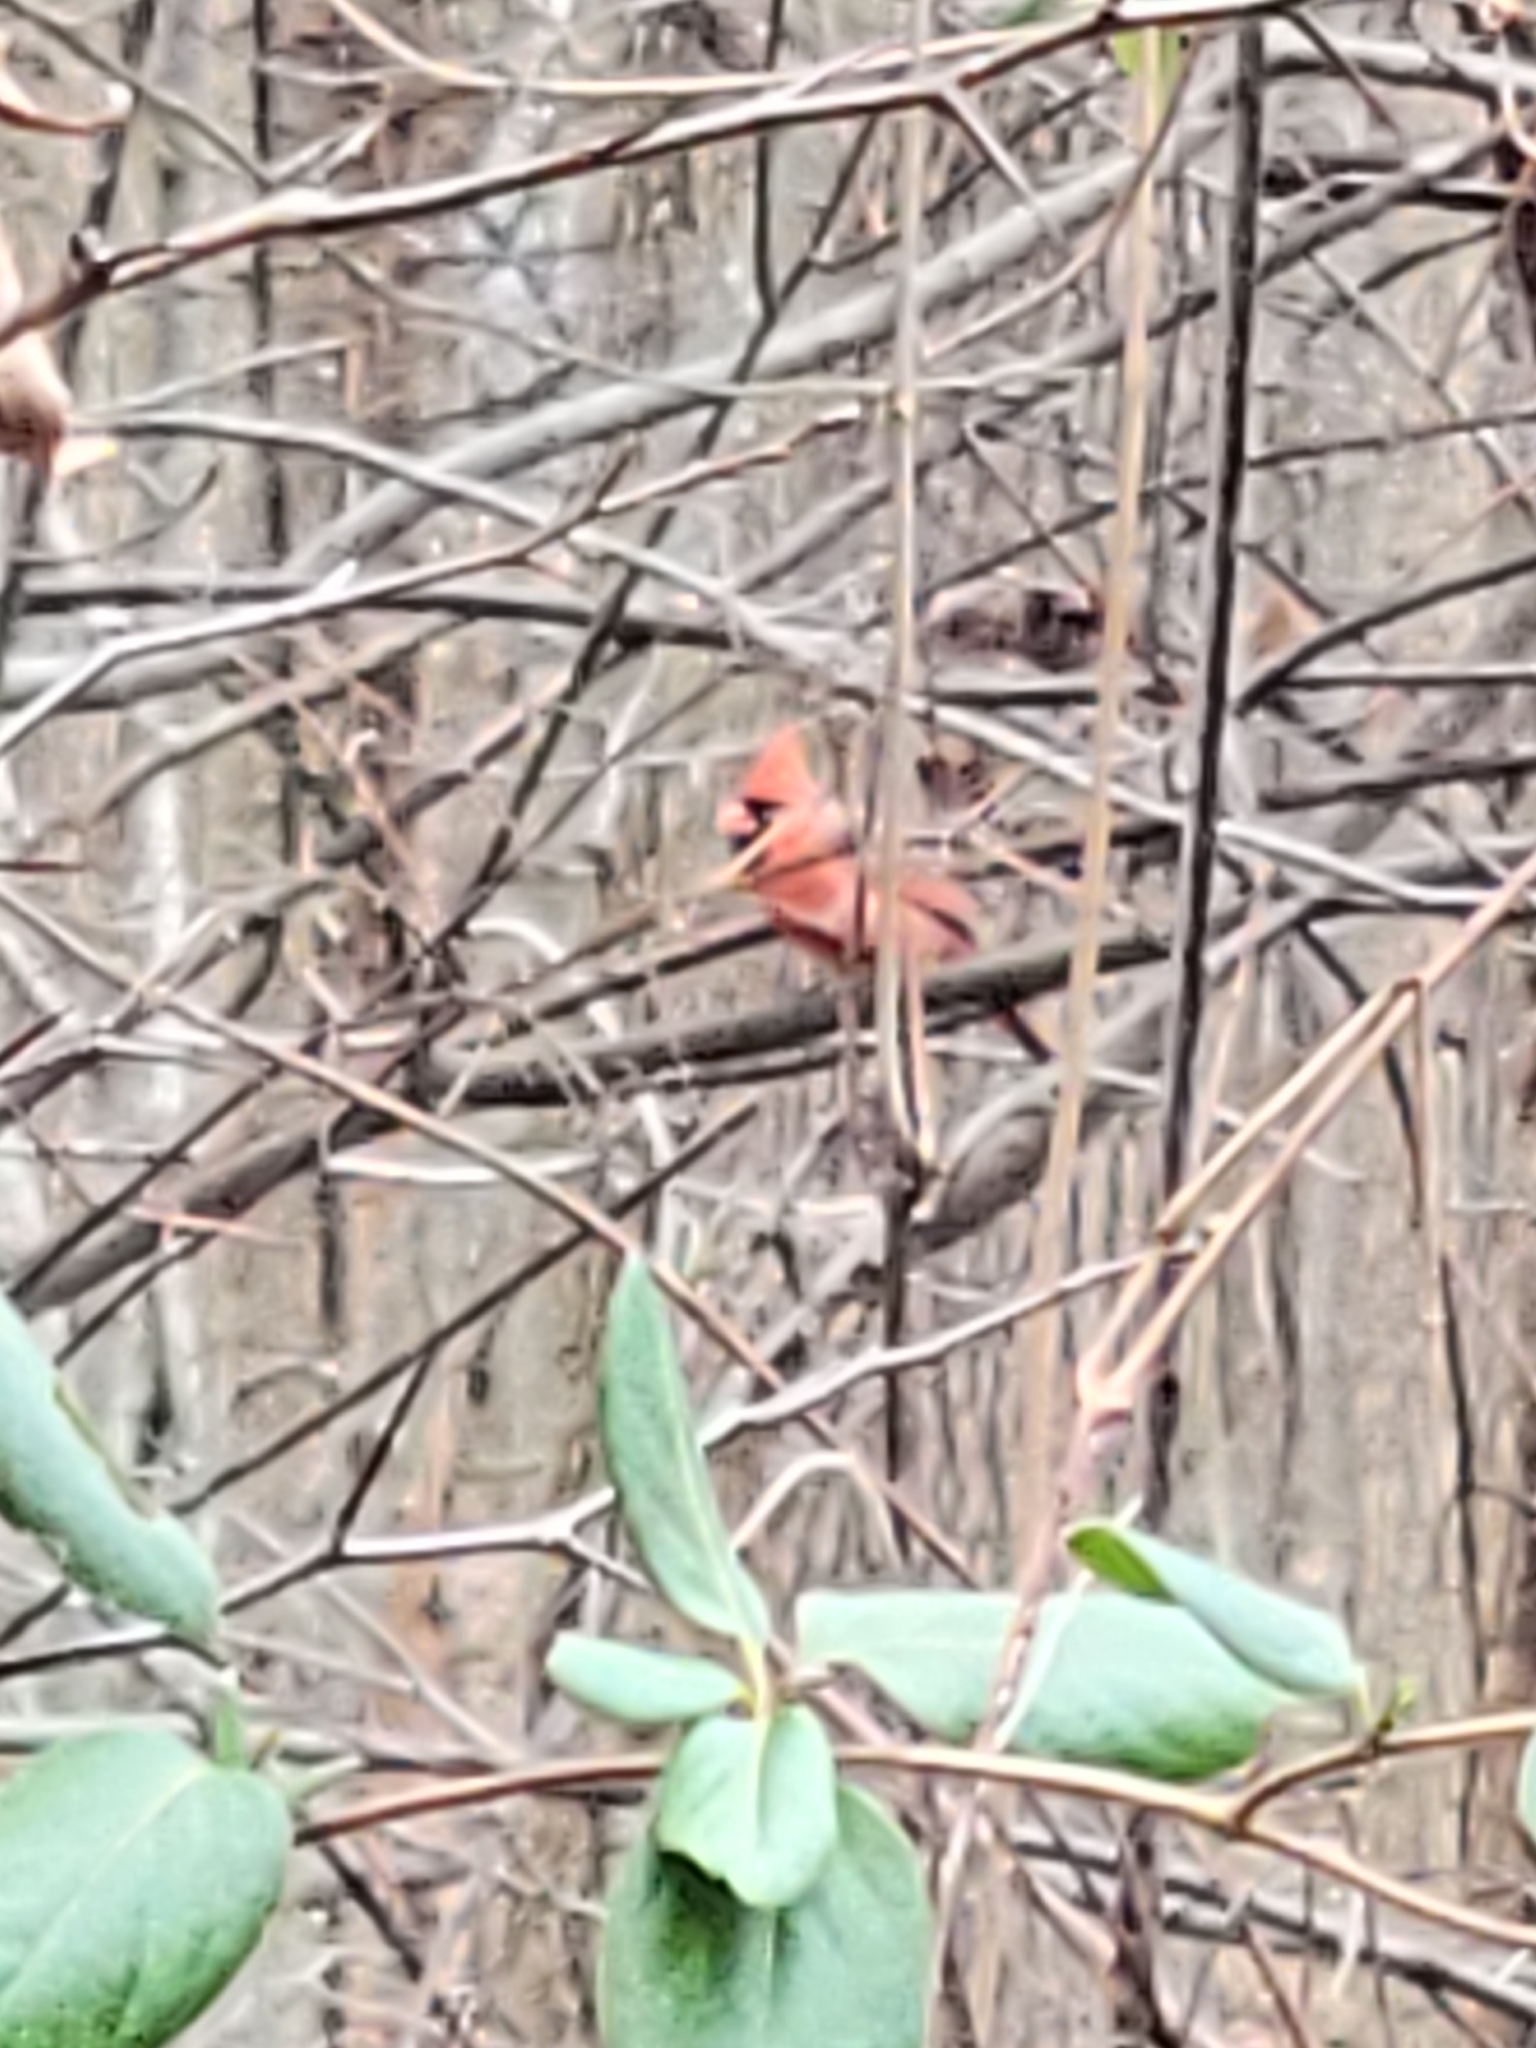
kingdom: Animalia
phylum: Chordata
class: Aves
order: Passeriformes
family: Cardinalidae
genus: Cardinalis
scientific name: Cardinalis cardinalis
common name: Northern cardinal
